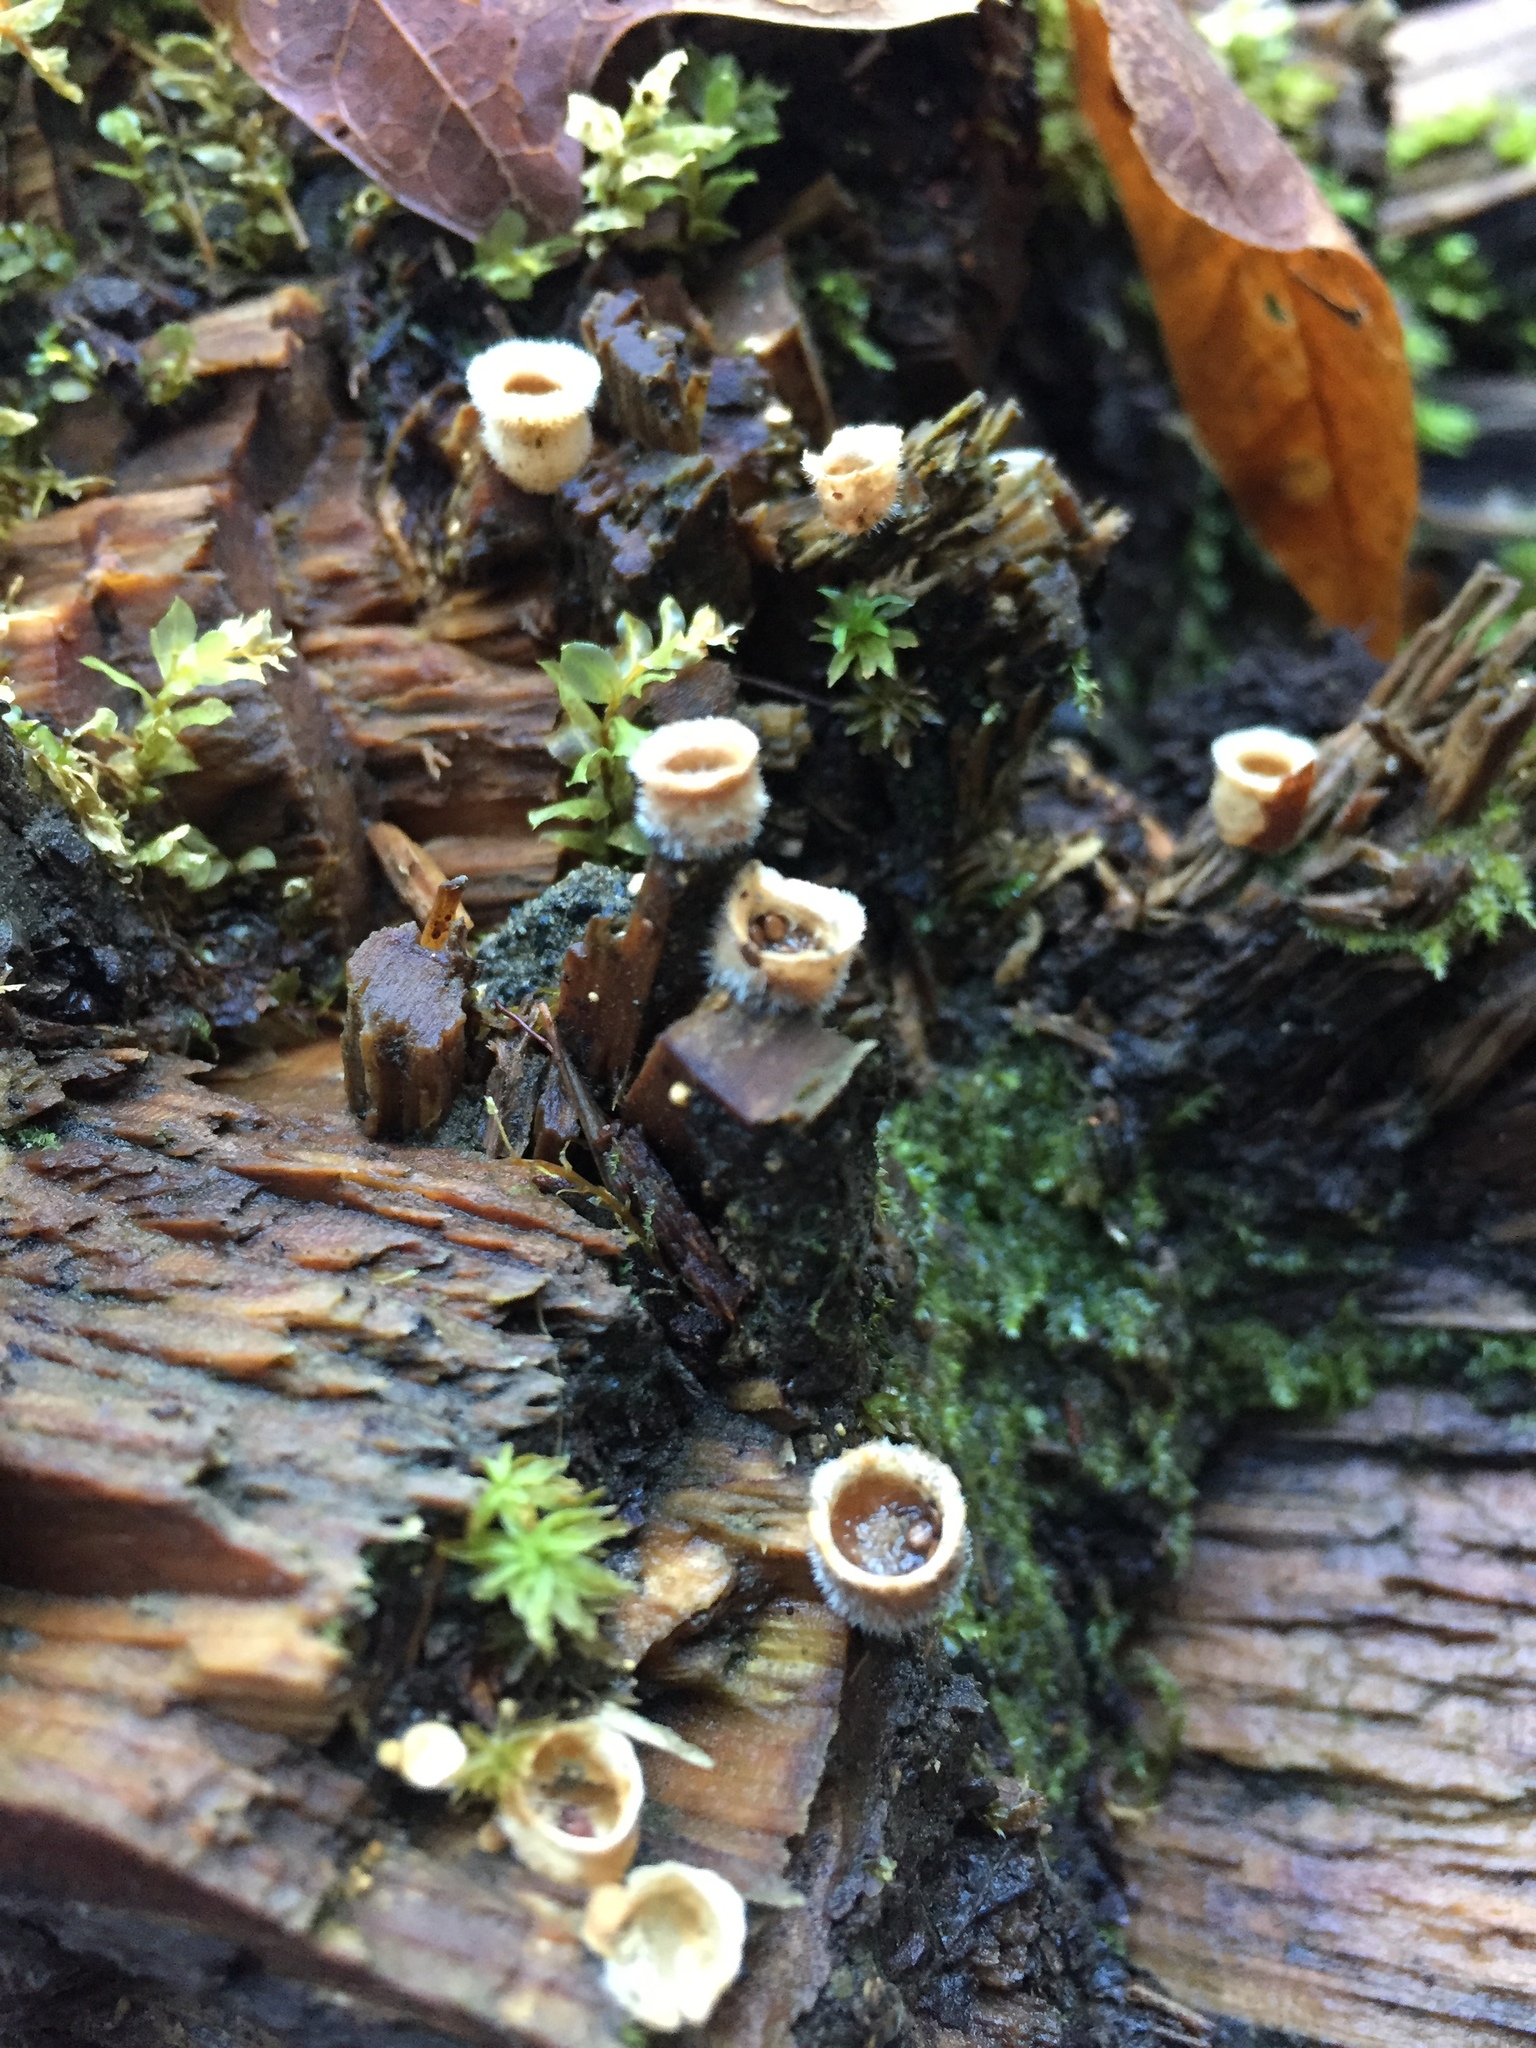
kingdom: Fungi
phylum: Basidiomycota
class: Agaricomycetes
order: Agaricales
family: Agaricaceae
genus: Nidula
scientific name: Nidula niveotomentosa
